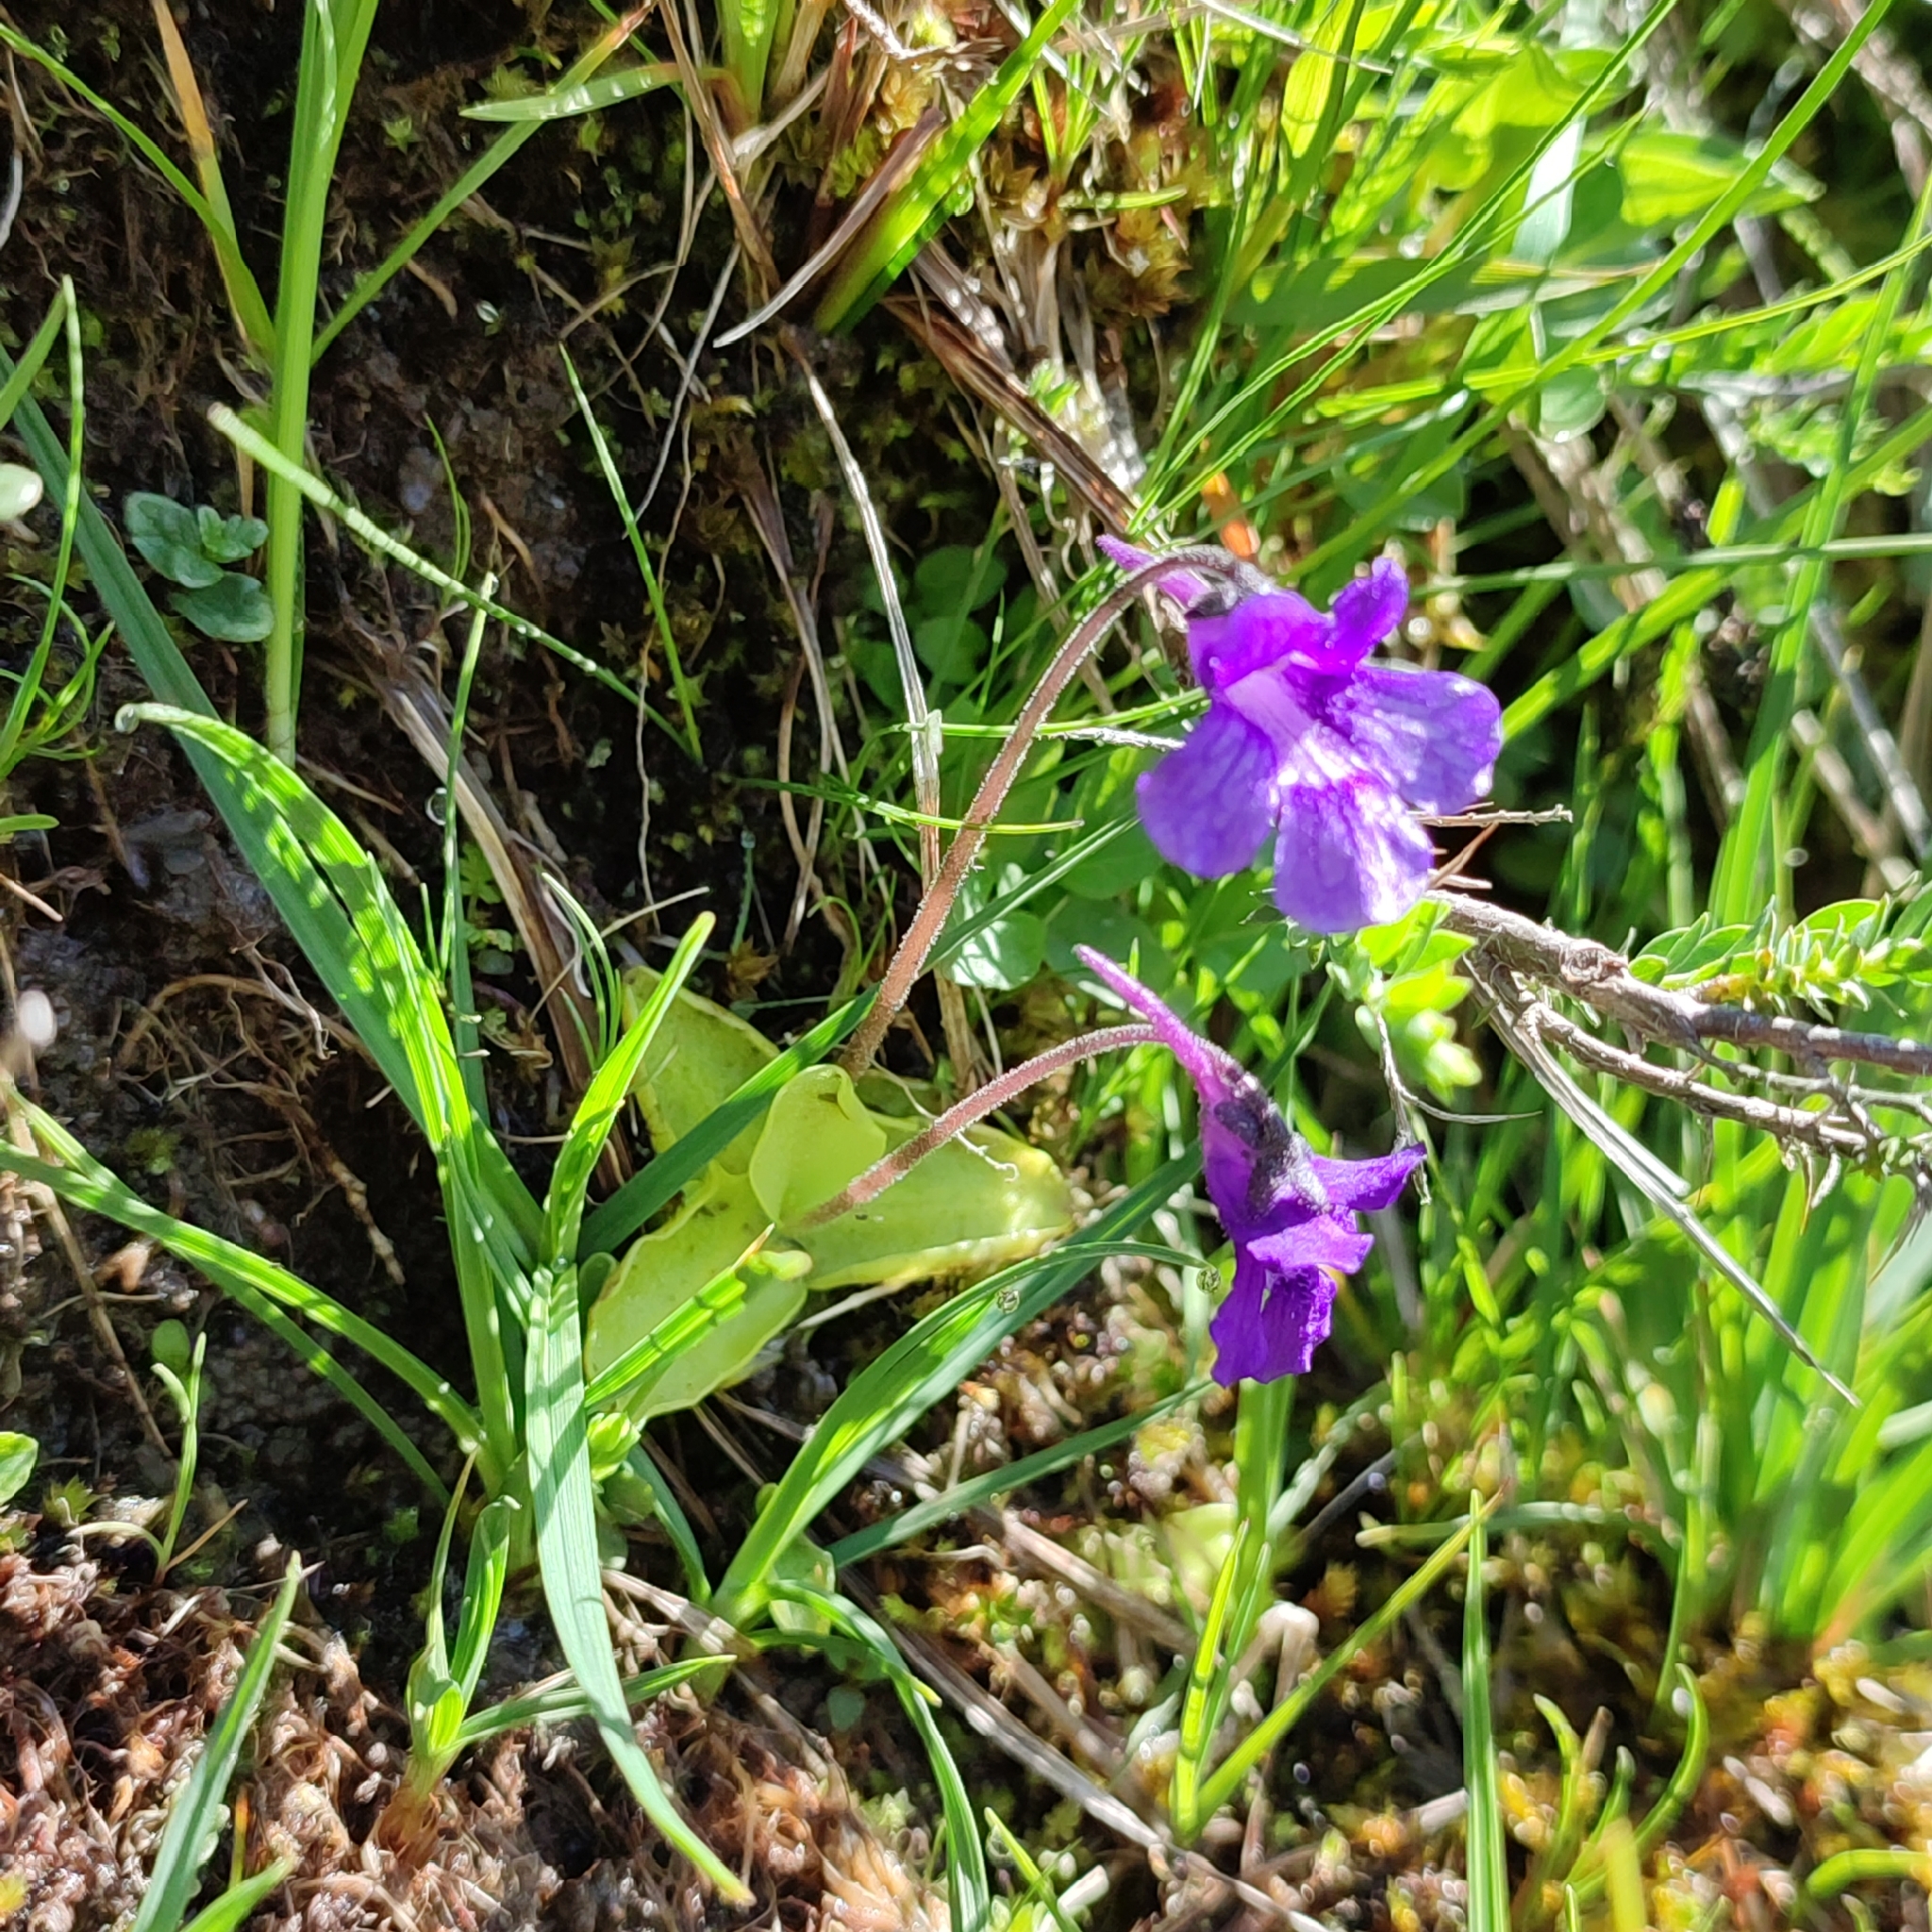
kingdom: Plantae
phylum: Tracheophyta
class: Magnoliopsida
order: Lamiales
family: Lentibulariaceae
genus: Pinguicula
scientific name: Pinguicula grandiflora
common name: Large-flowered butterwort
